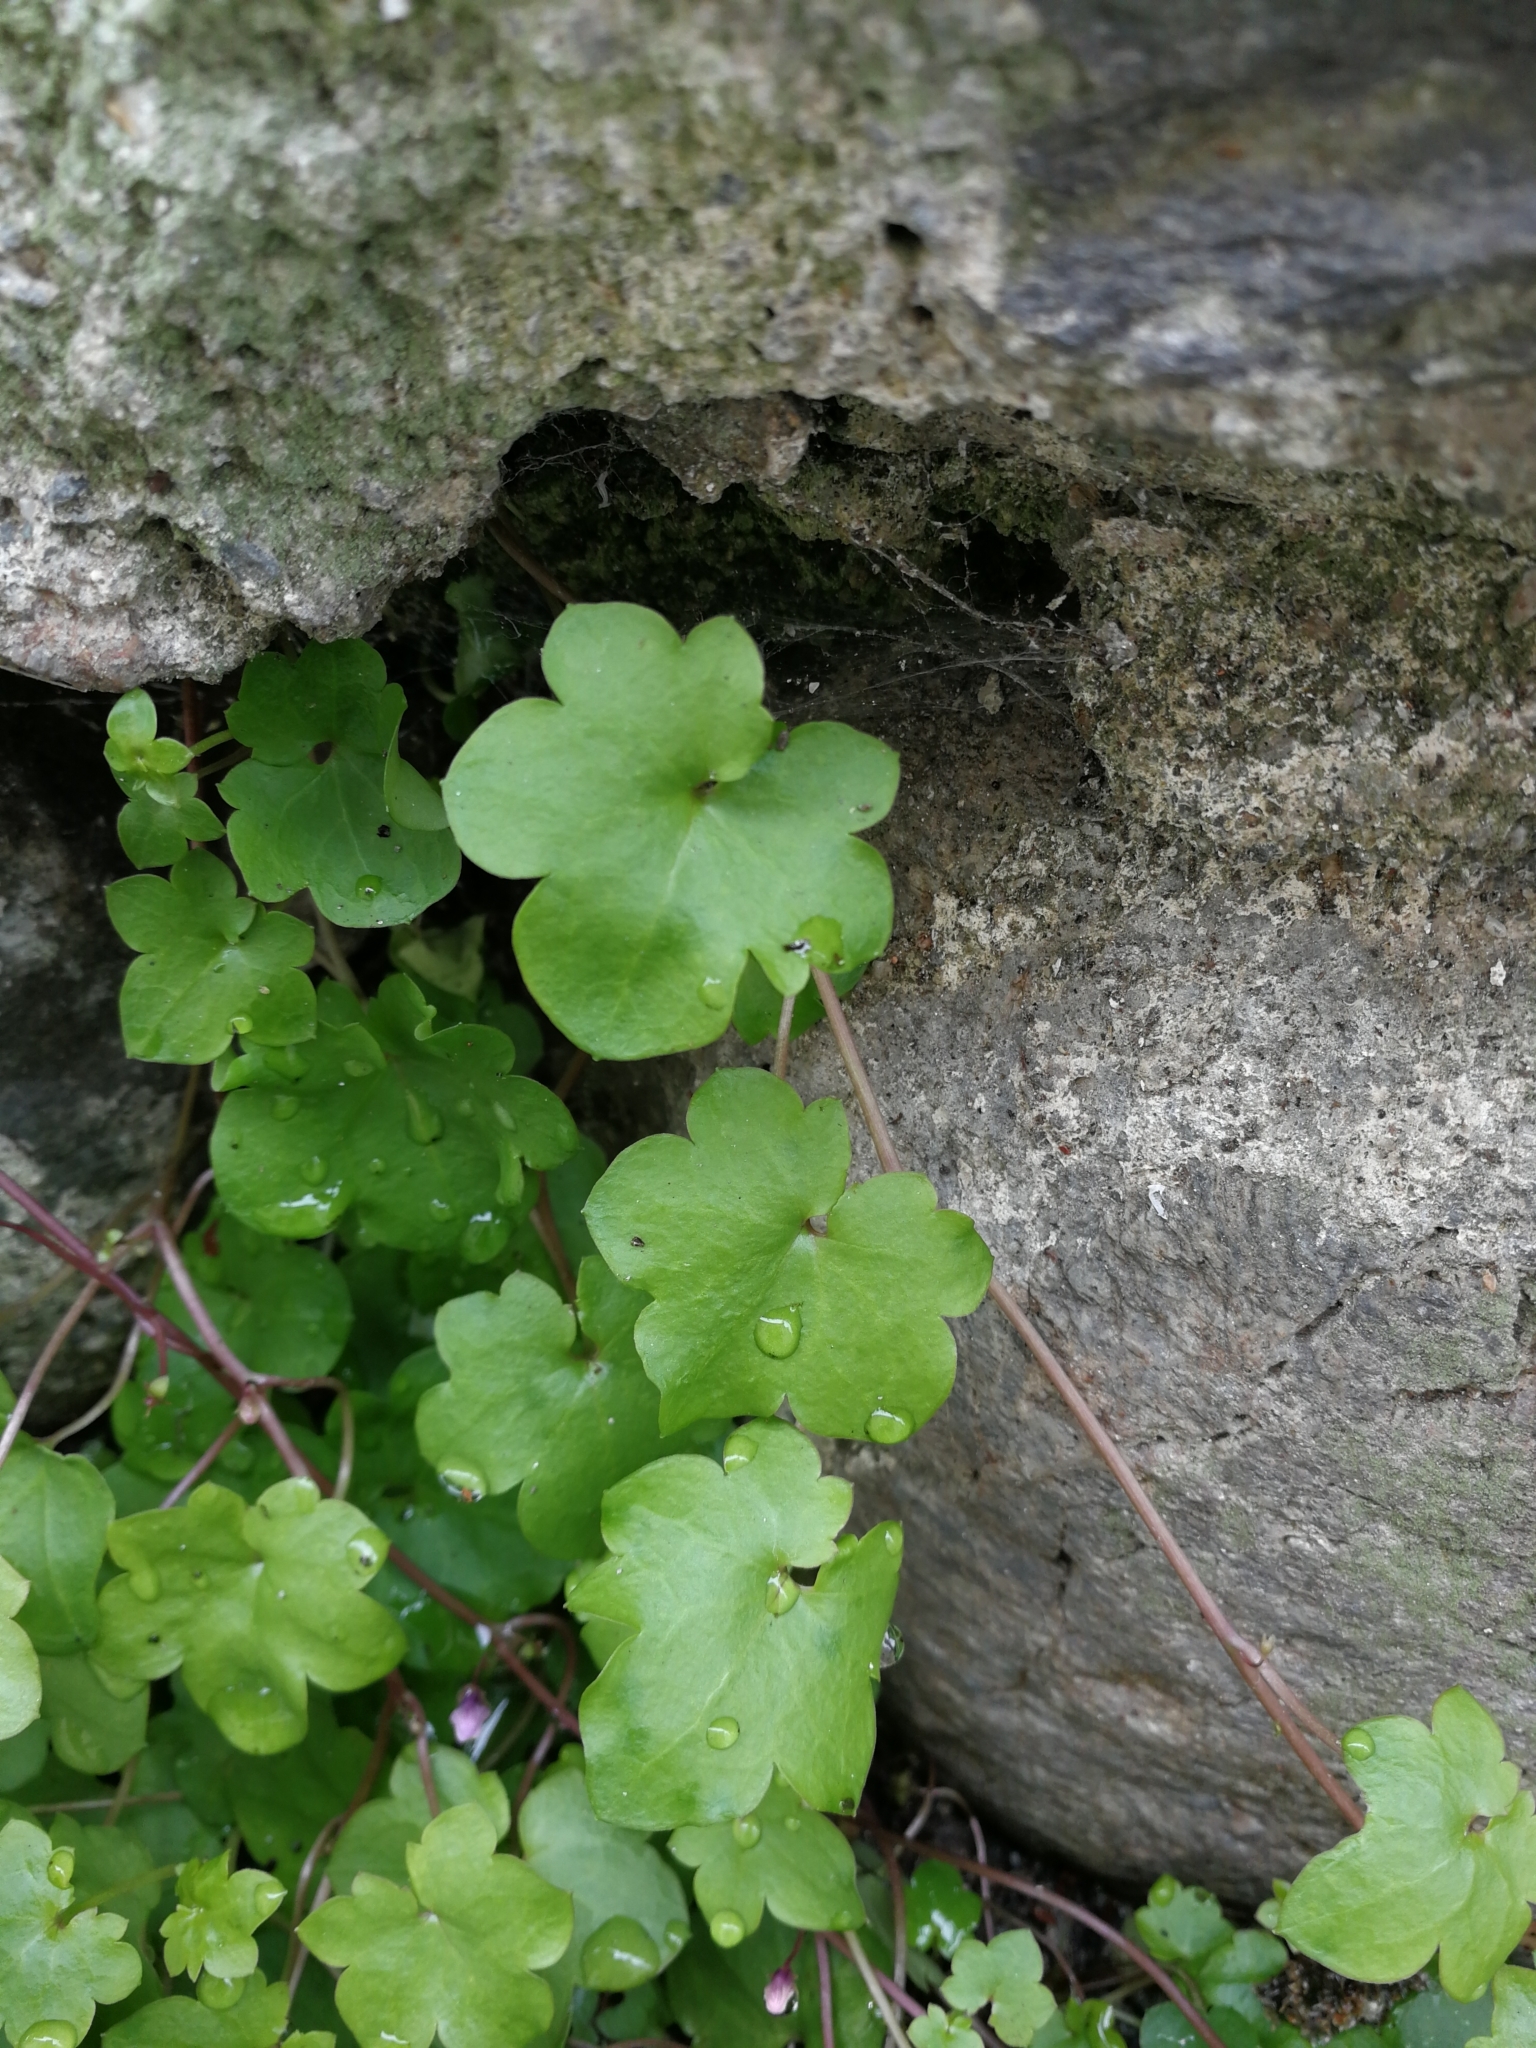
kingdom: Plantae
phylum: Tracheophyta
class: Magnoliopsida
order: Lamiales
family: Plantaginaceae
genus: Cymbalaria
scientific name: Cymbalaria muralis
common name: Ivy-leaved toadflax
